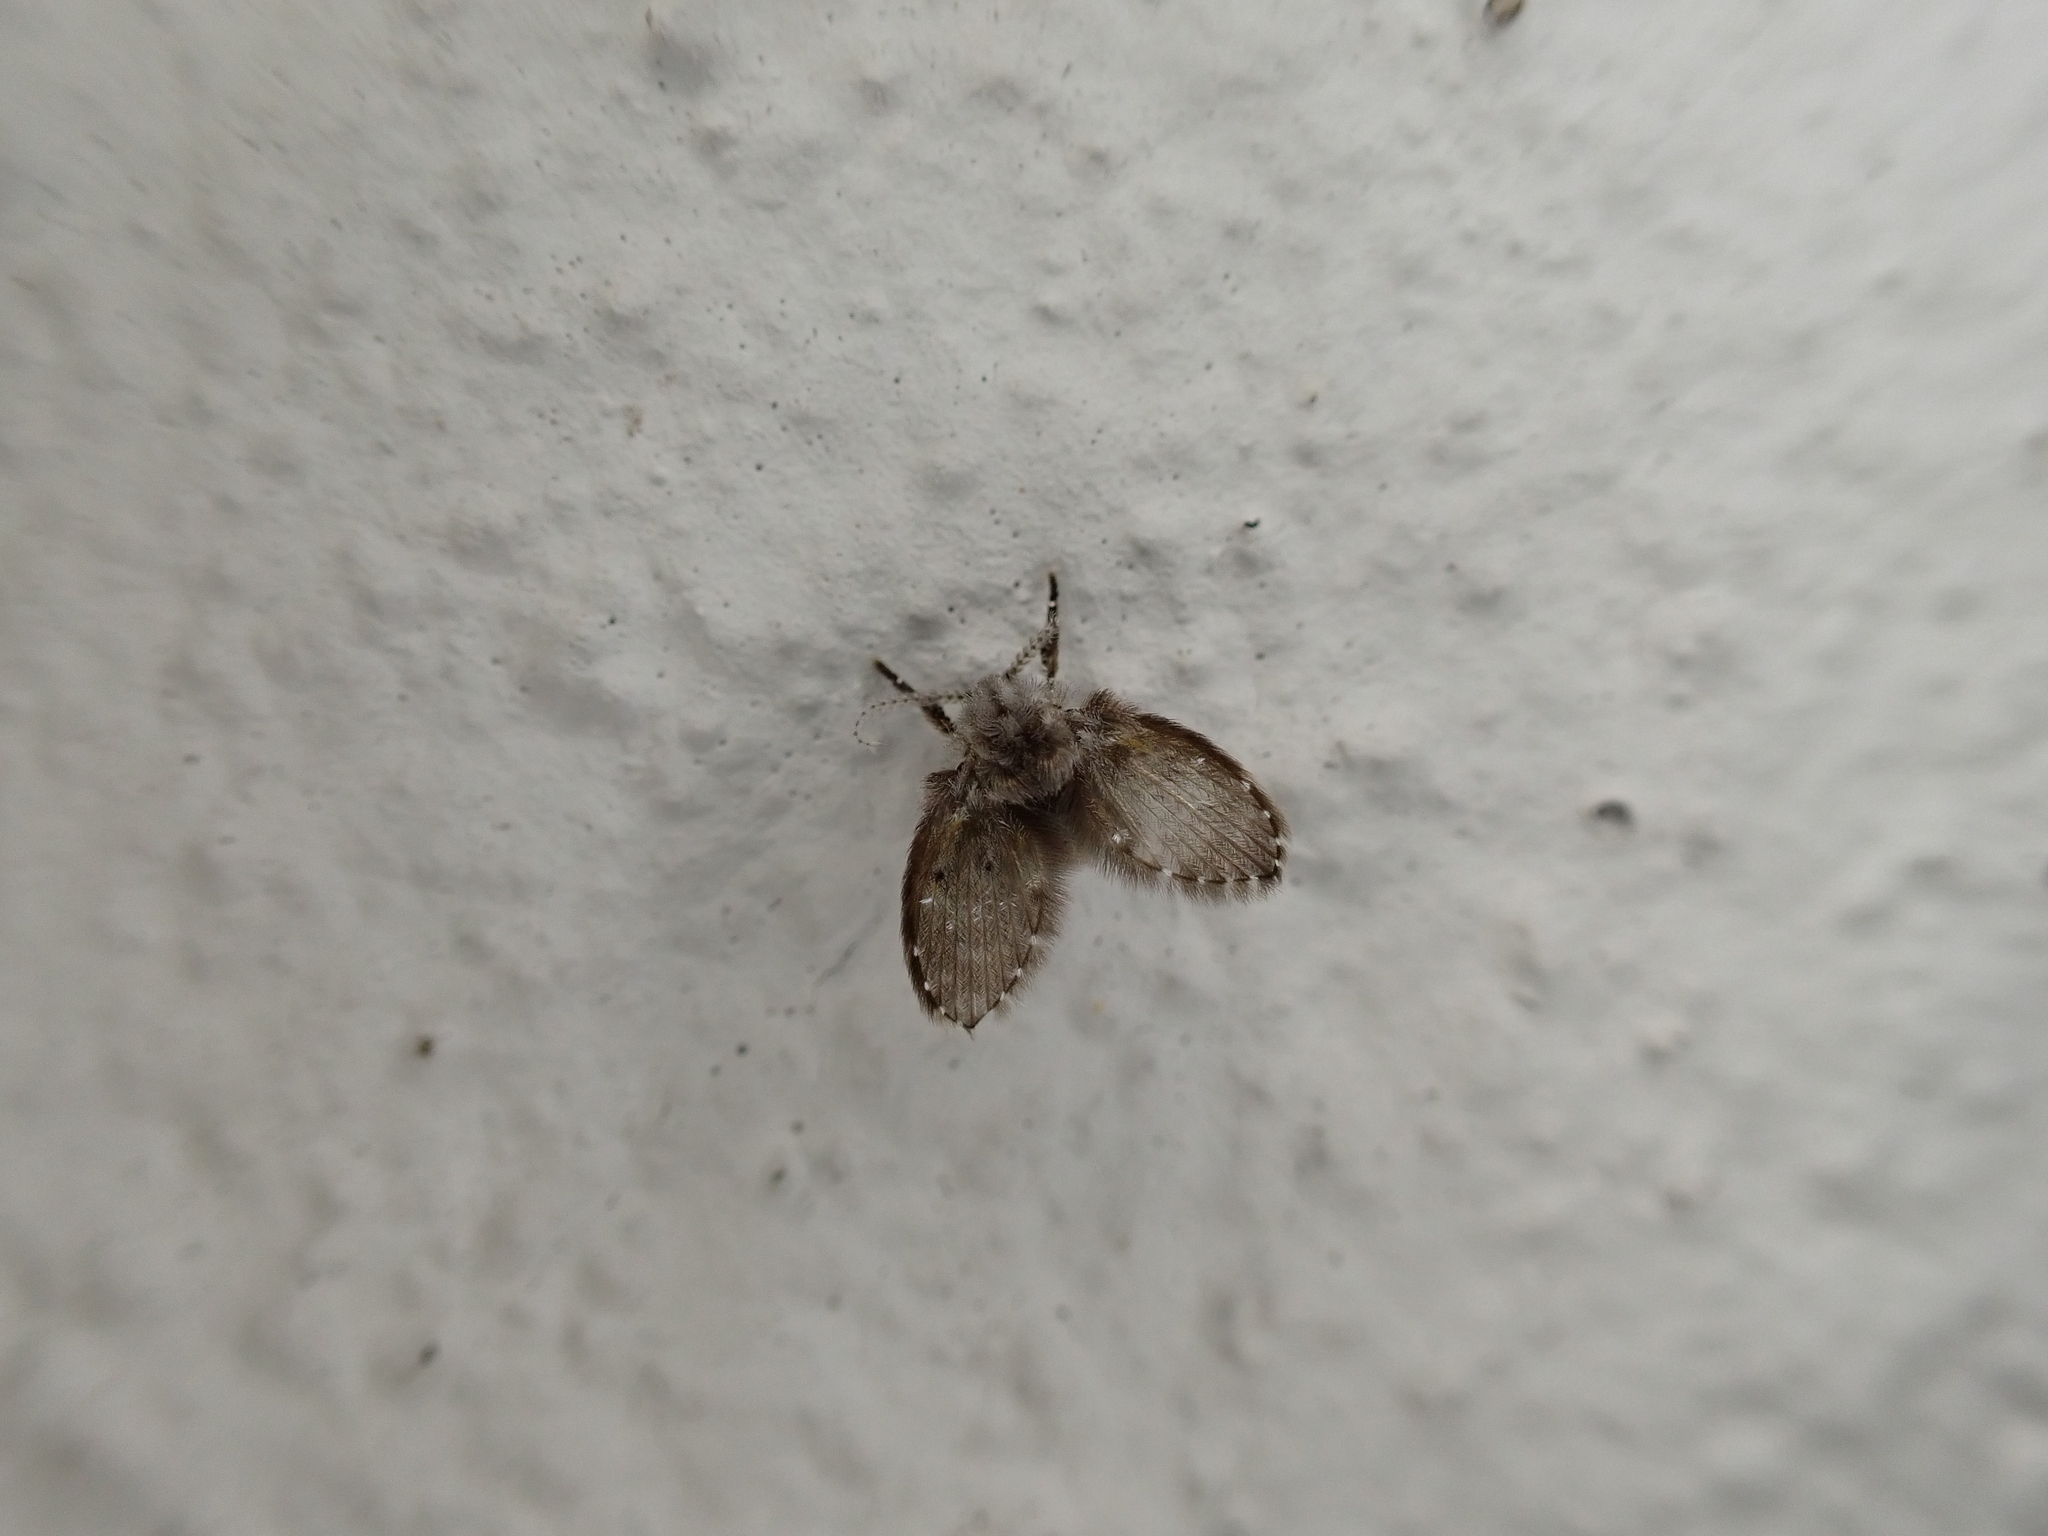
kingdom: Animalia
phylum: Arthropoda
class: Insecta
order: Diptera
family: Psychodidae
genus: Clogmia
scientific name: Clogmia albipunctatus
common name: White-spotted moth fly
